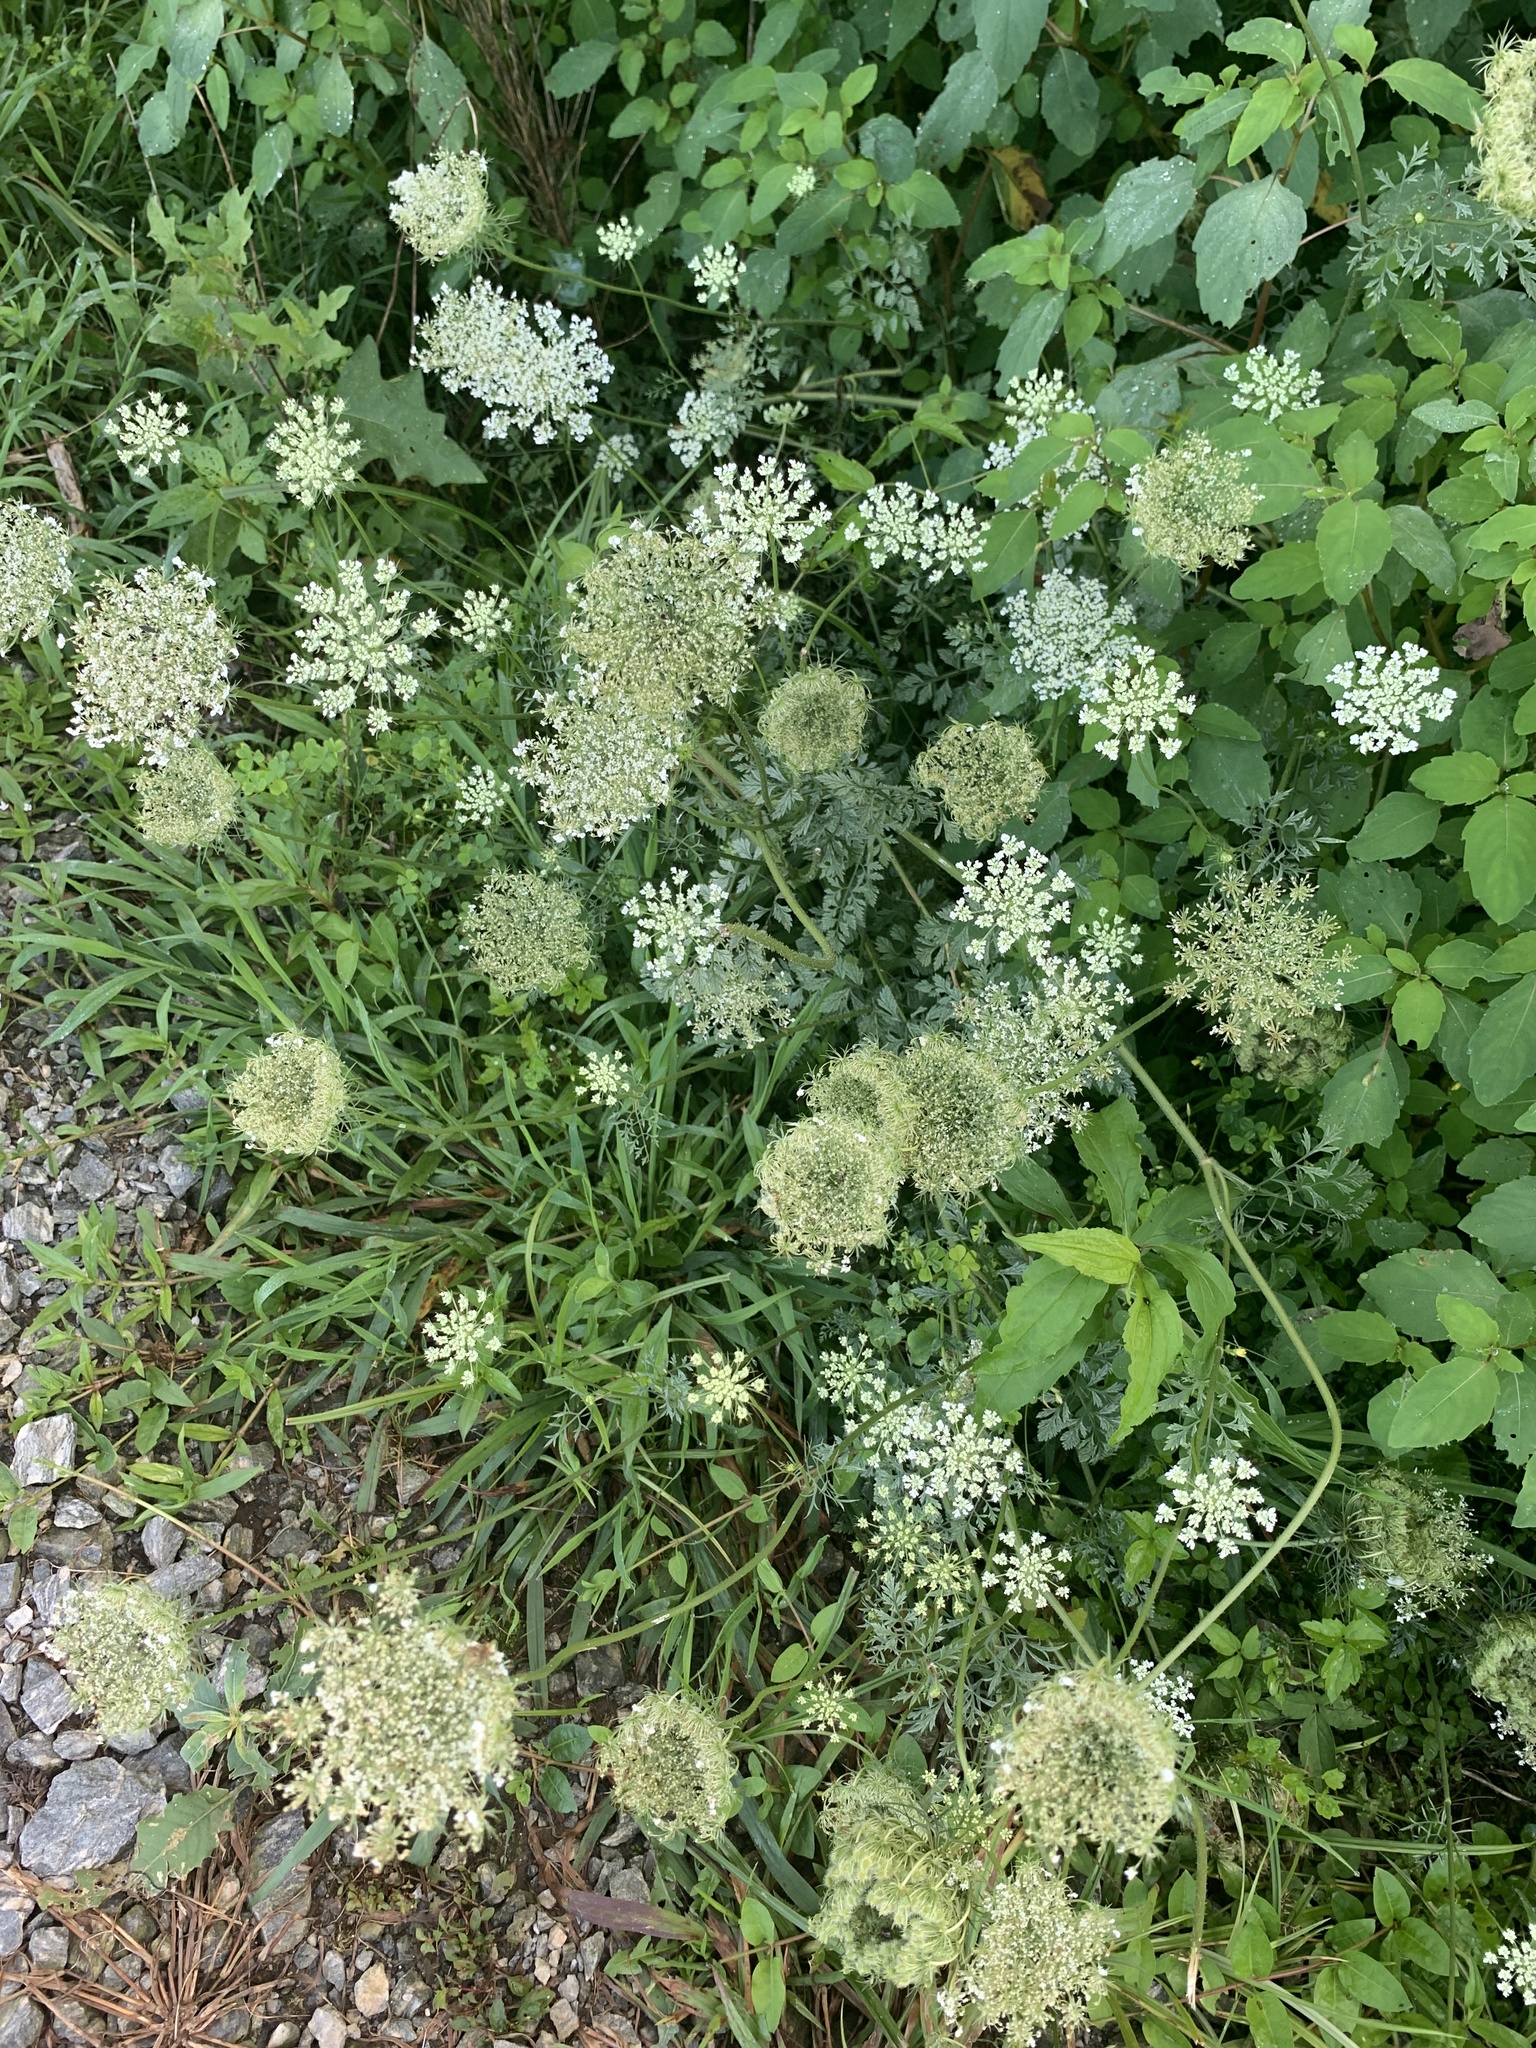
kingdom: Plantae
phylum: Tracheophyta
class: Magnoliopsida
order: Apiales
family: Apiaceae
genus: Daucus
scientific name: Daucus carota
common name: Wild carrot
